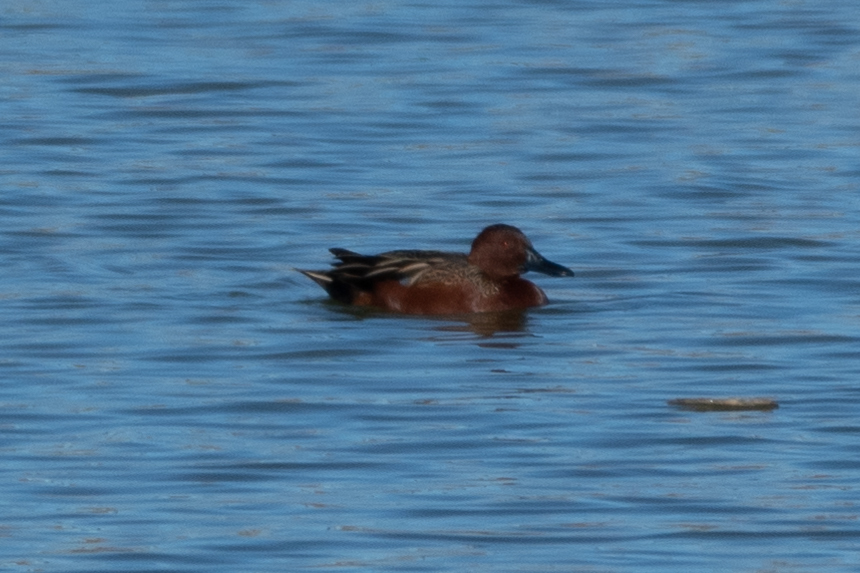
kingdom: Animalia
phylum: Chordata
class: Aves
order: Anseriformes
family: Anatidae
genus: Spatula
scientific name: Spatula cyanoptera
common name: Cinnamon teal
